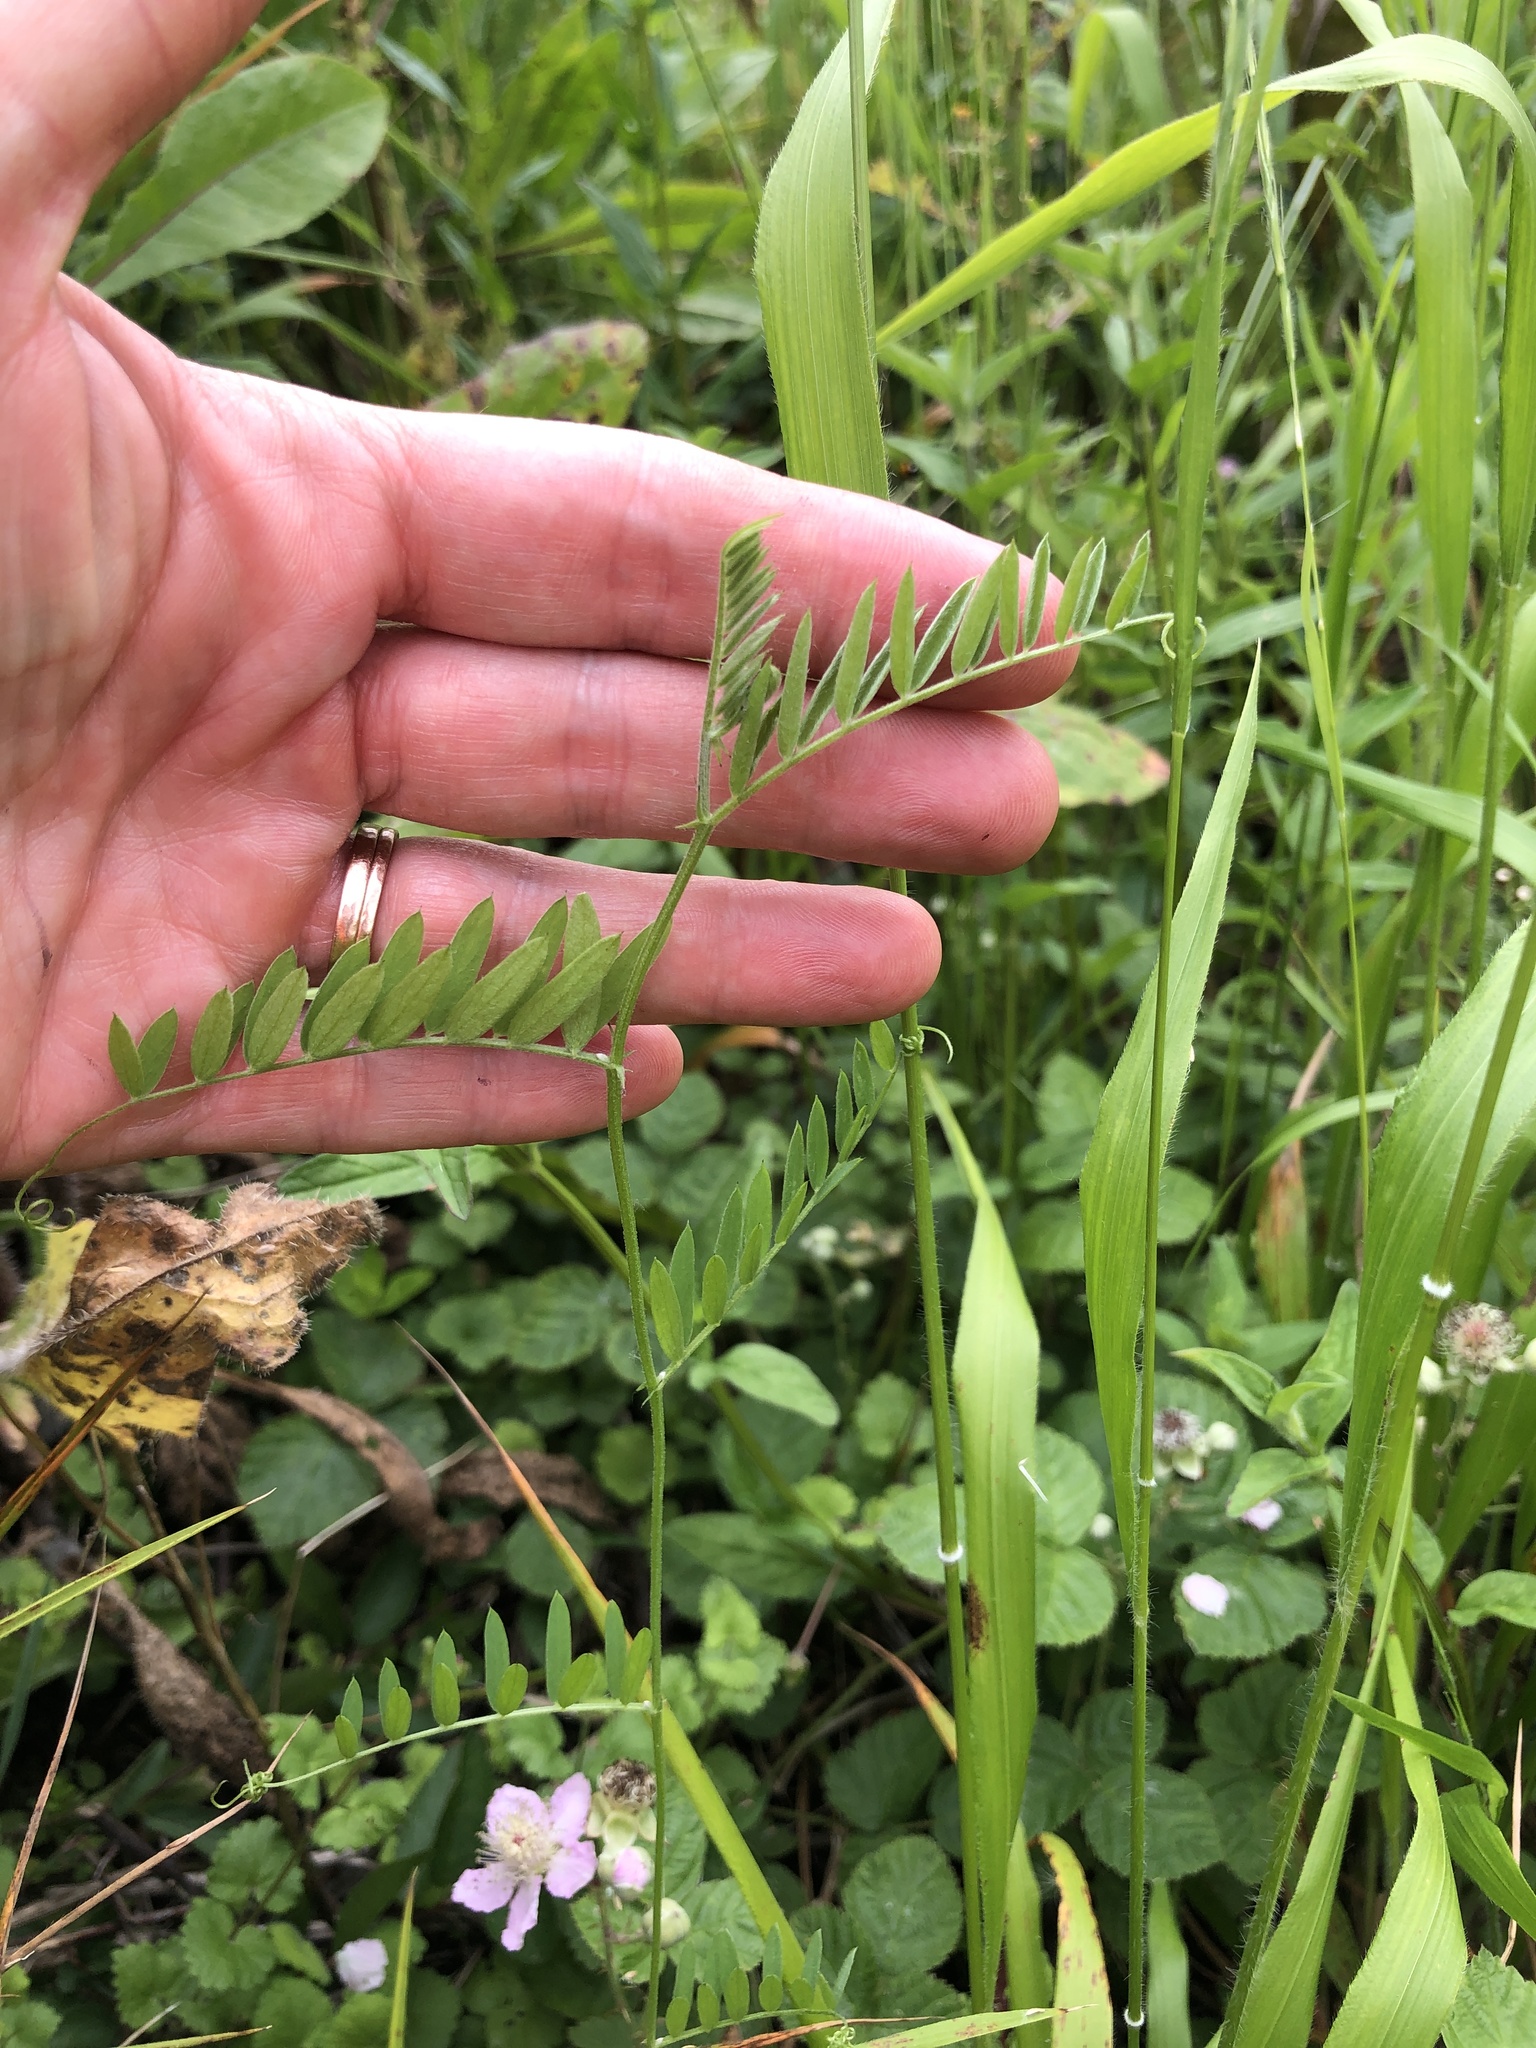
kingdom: Plantae
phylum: Tracheophyta
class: Magnoliopsida
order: Fabales
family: Fabaceae
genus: Vicia
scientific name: Vicia cracca
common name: Bird vetch
